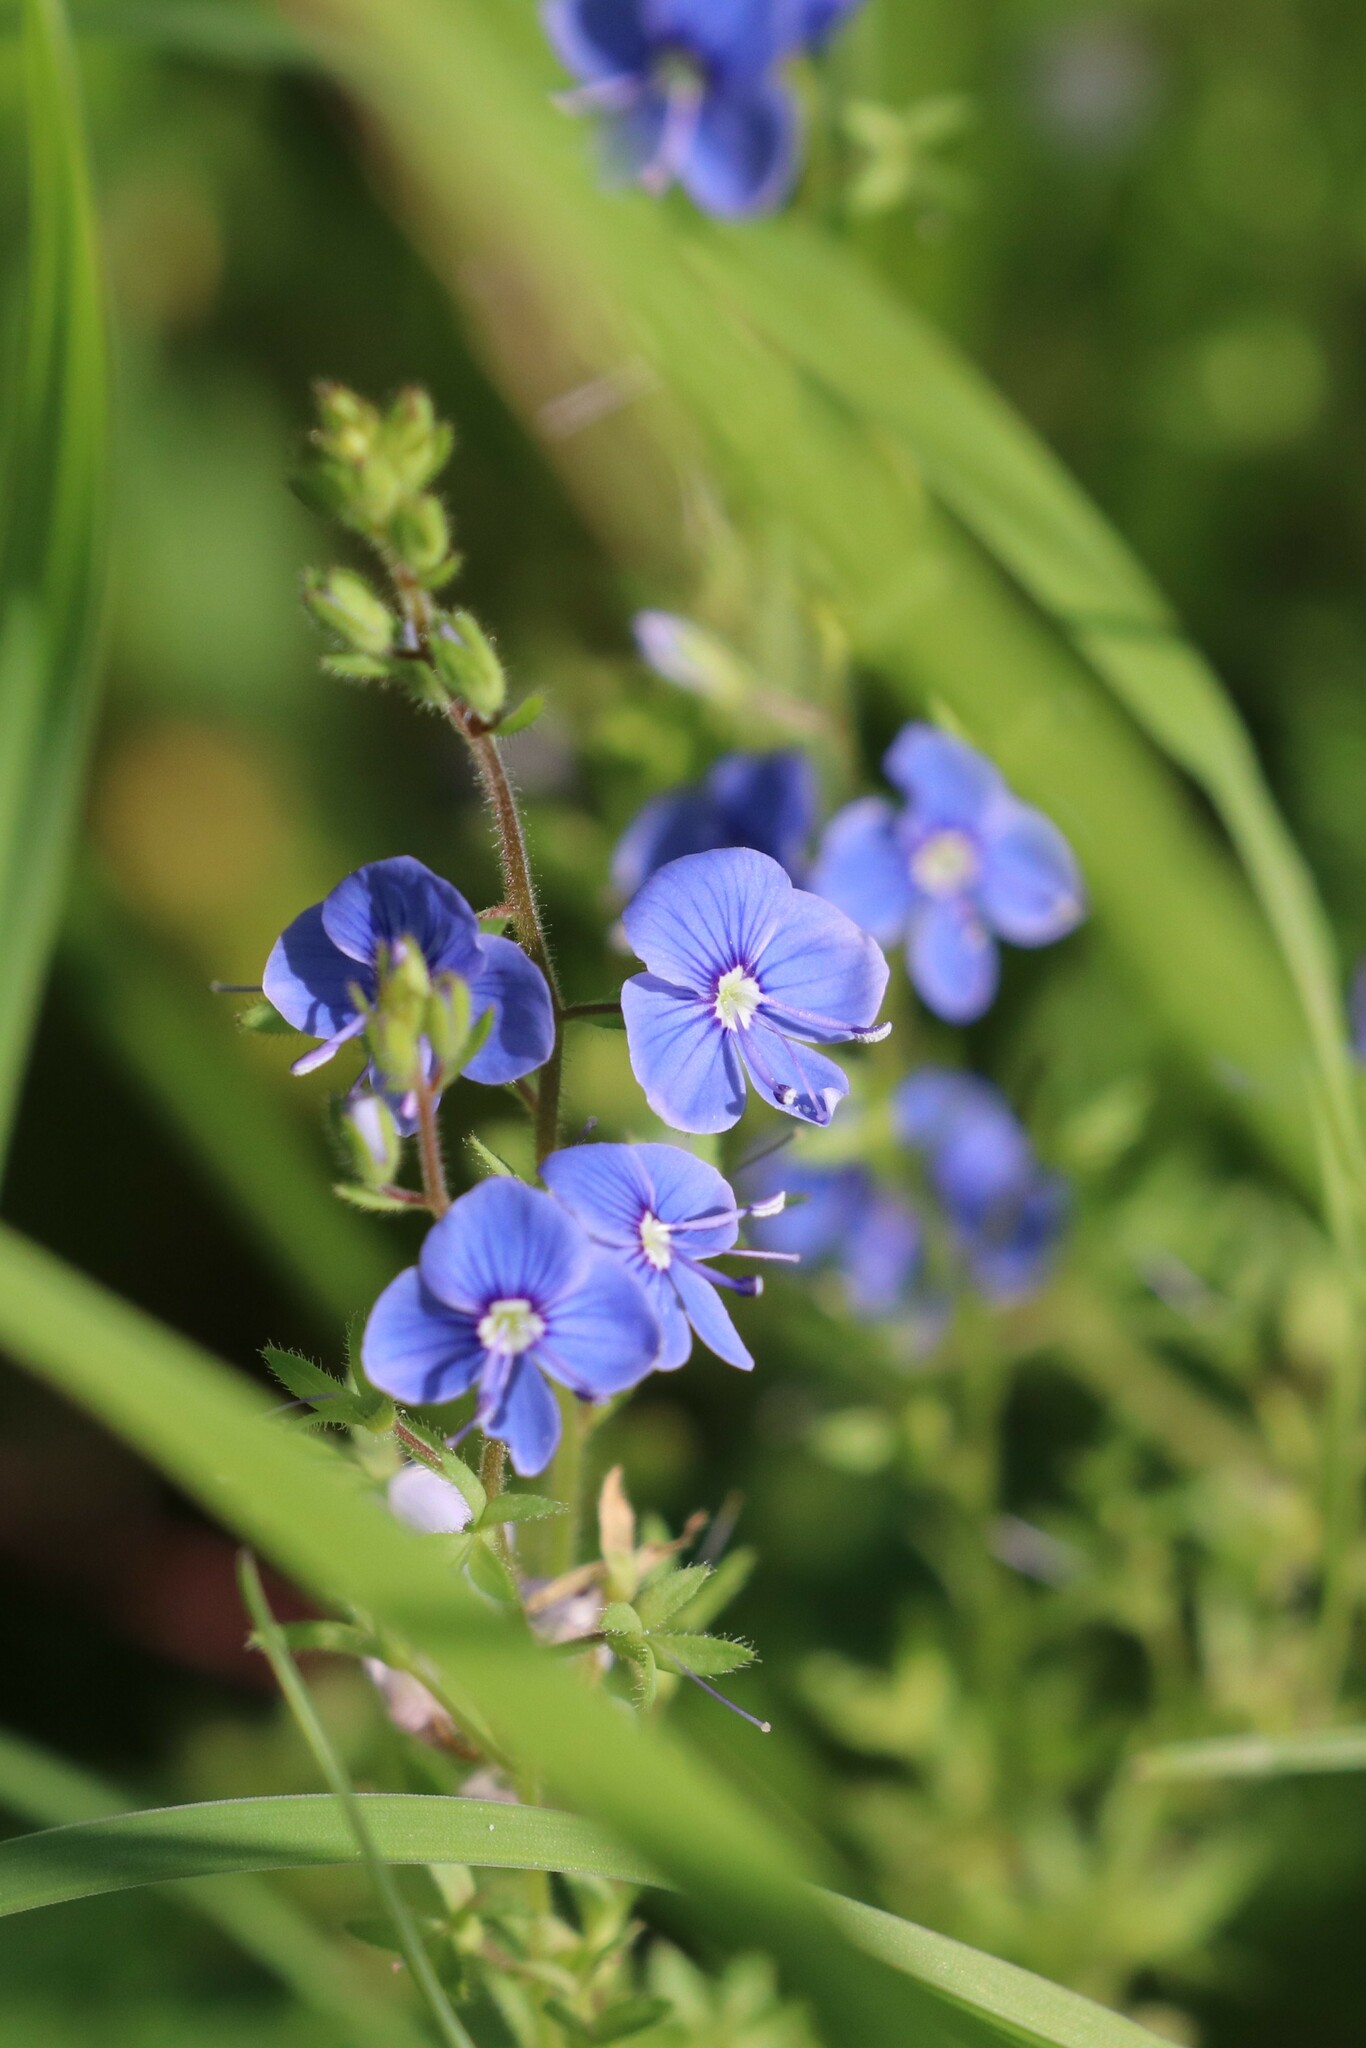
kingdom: Plantae
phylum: Tracheophyta
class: Magnoliopsida
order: Lamiales
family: Plantaginaceae
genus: Veronica
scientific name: Veronica chamaedrys
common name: Germander speedwell
